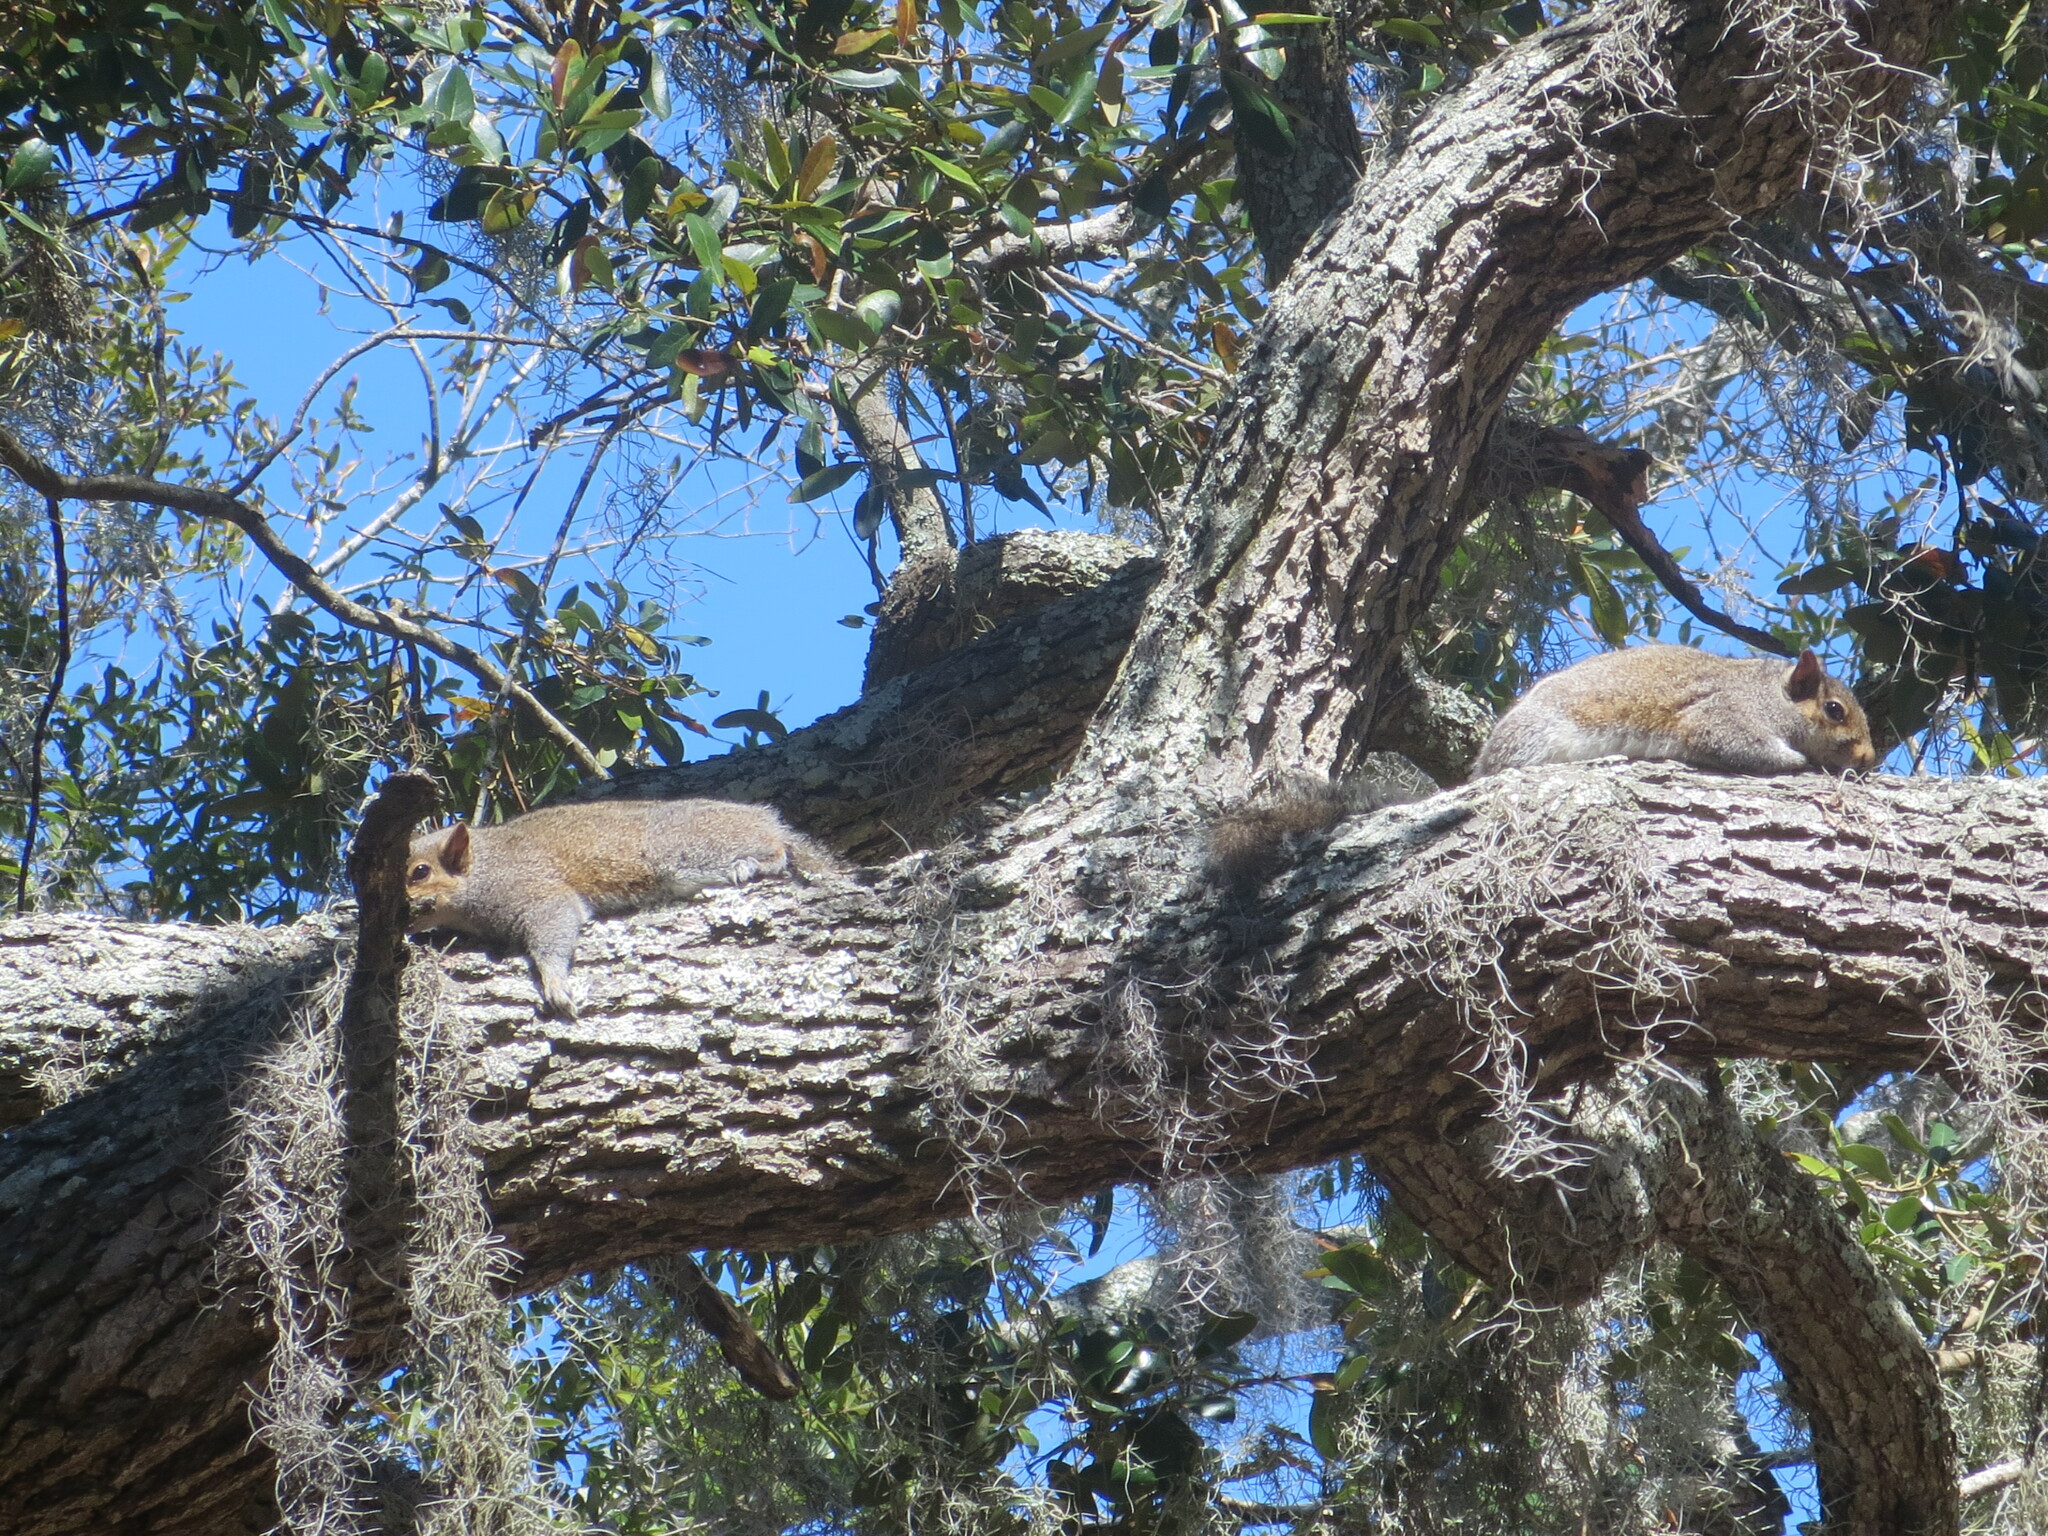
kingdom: Animalia
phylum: Chordata
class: Mammalia
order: Rodentia
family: Sciuridae
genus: Sciurus
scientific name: Sciurus carolinensis
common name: Eastern gray squirrel
